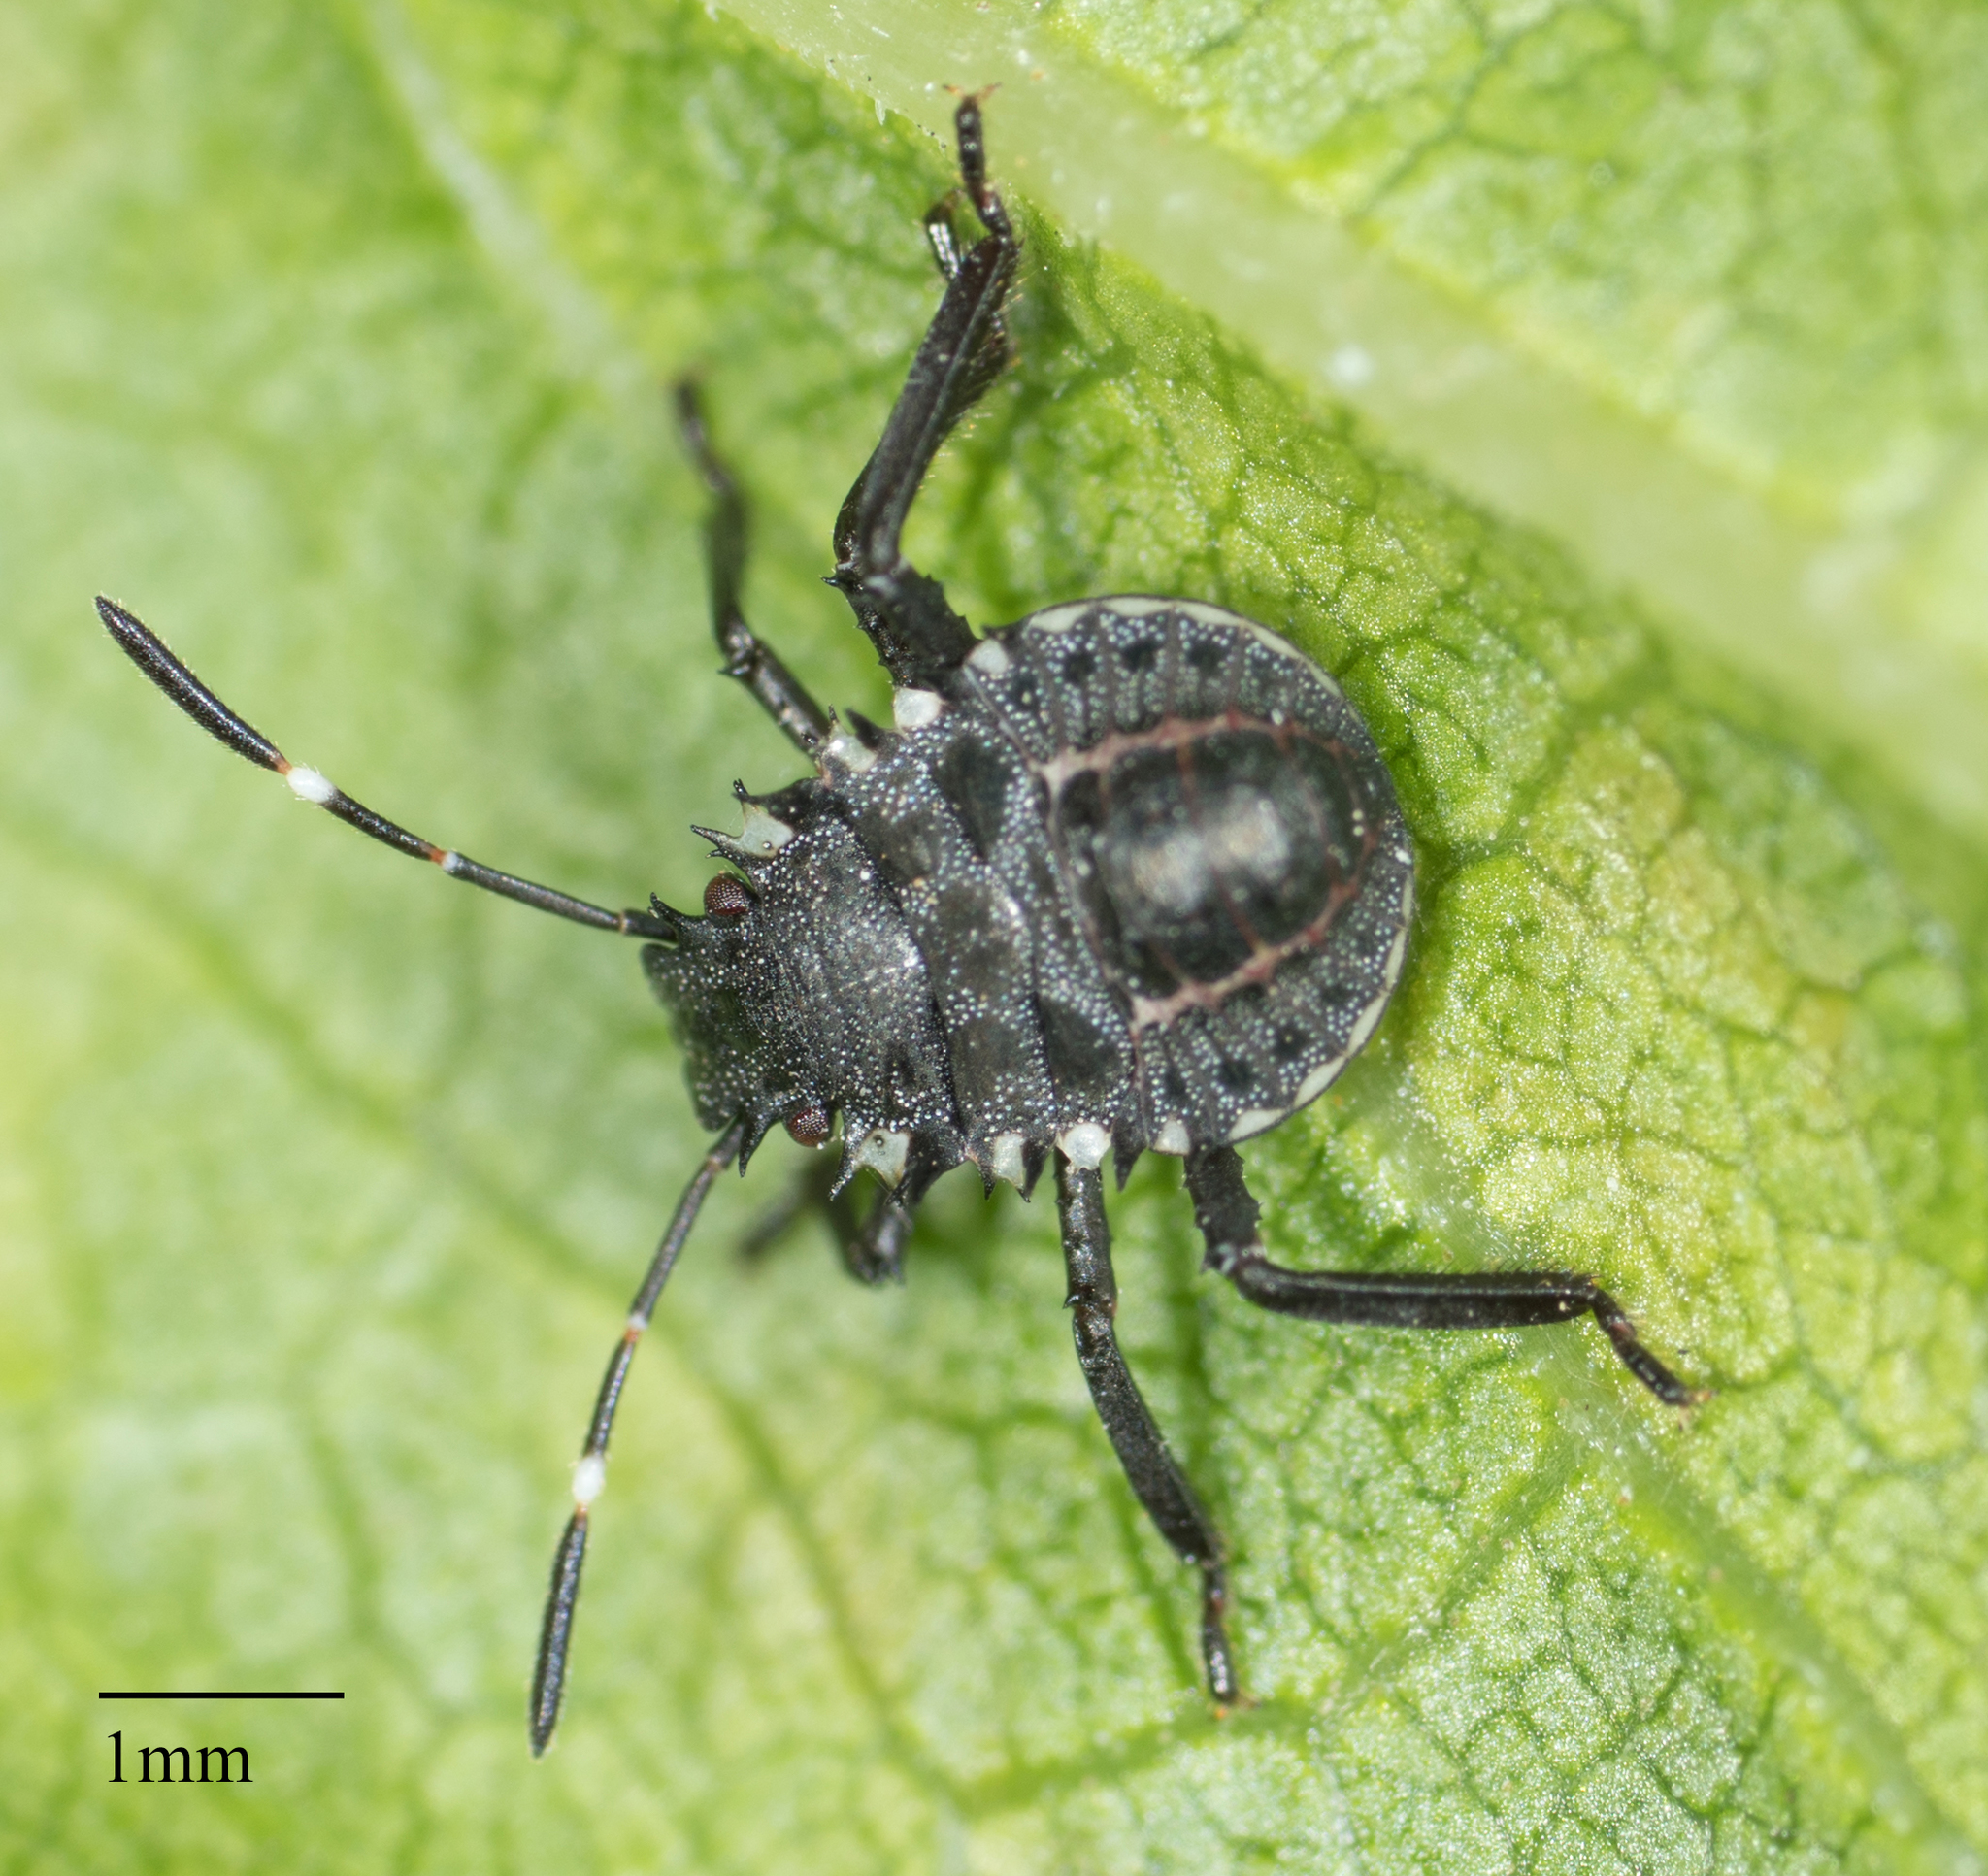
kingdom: Animalia
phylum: Arthropoda
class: Insecta
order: Hemiptera
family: Pentatomidae
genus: Halyomorpha
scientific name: Halyomorpha halys
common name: Brown marmorated stink bug
